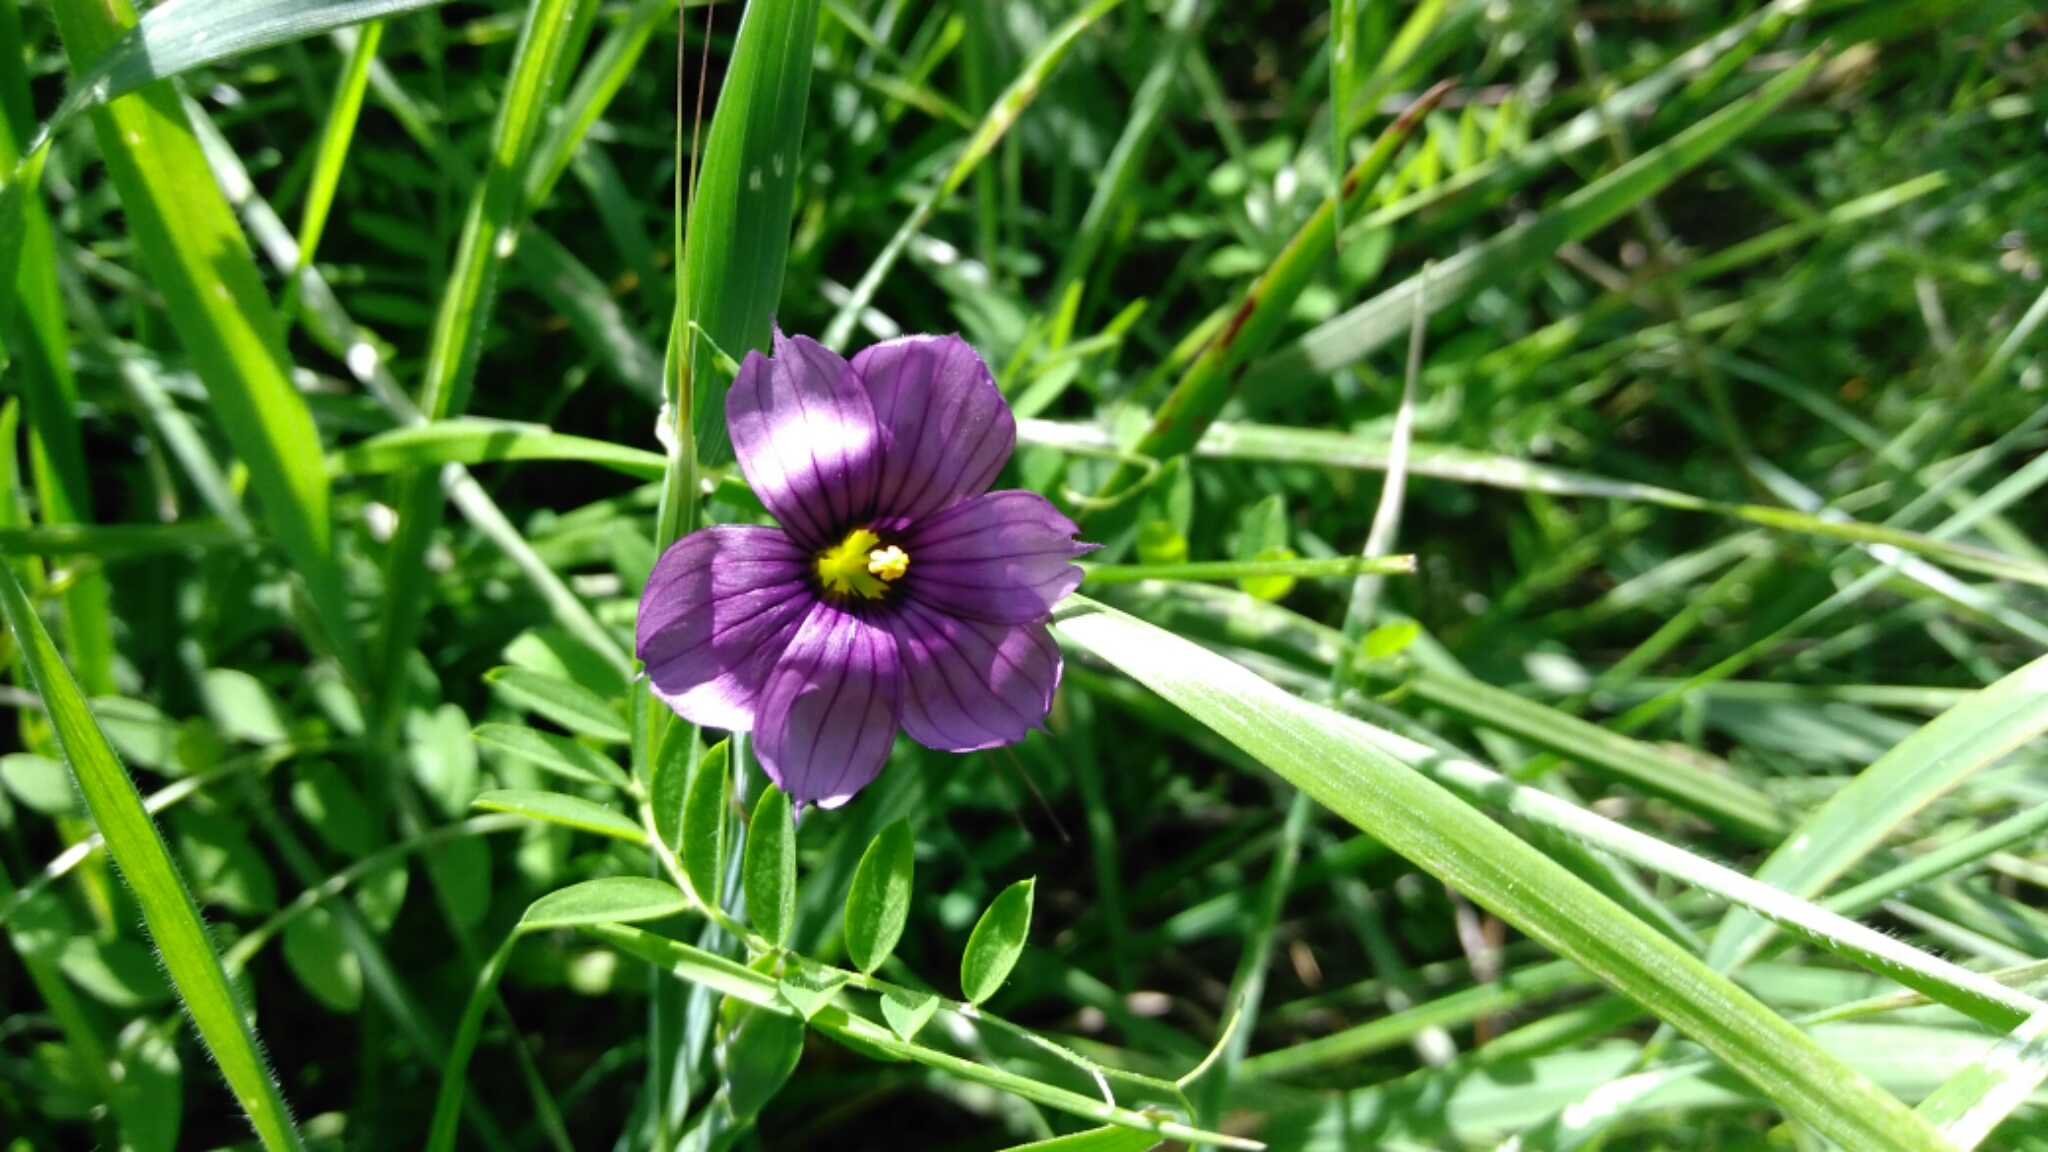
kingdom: Plantae
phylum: Tracheophyta
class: Liliopsida
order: Asparagales
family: Iridaceae
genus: Sisyrinchium
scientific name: Sisyrinchium bellum
